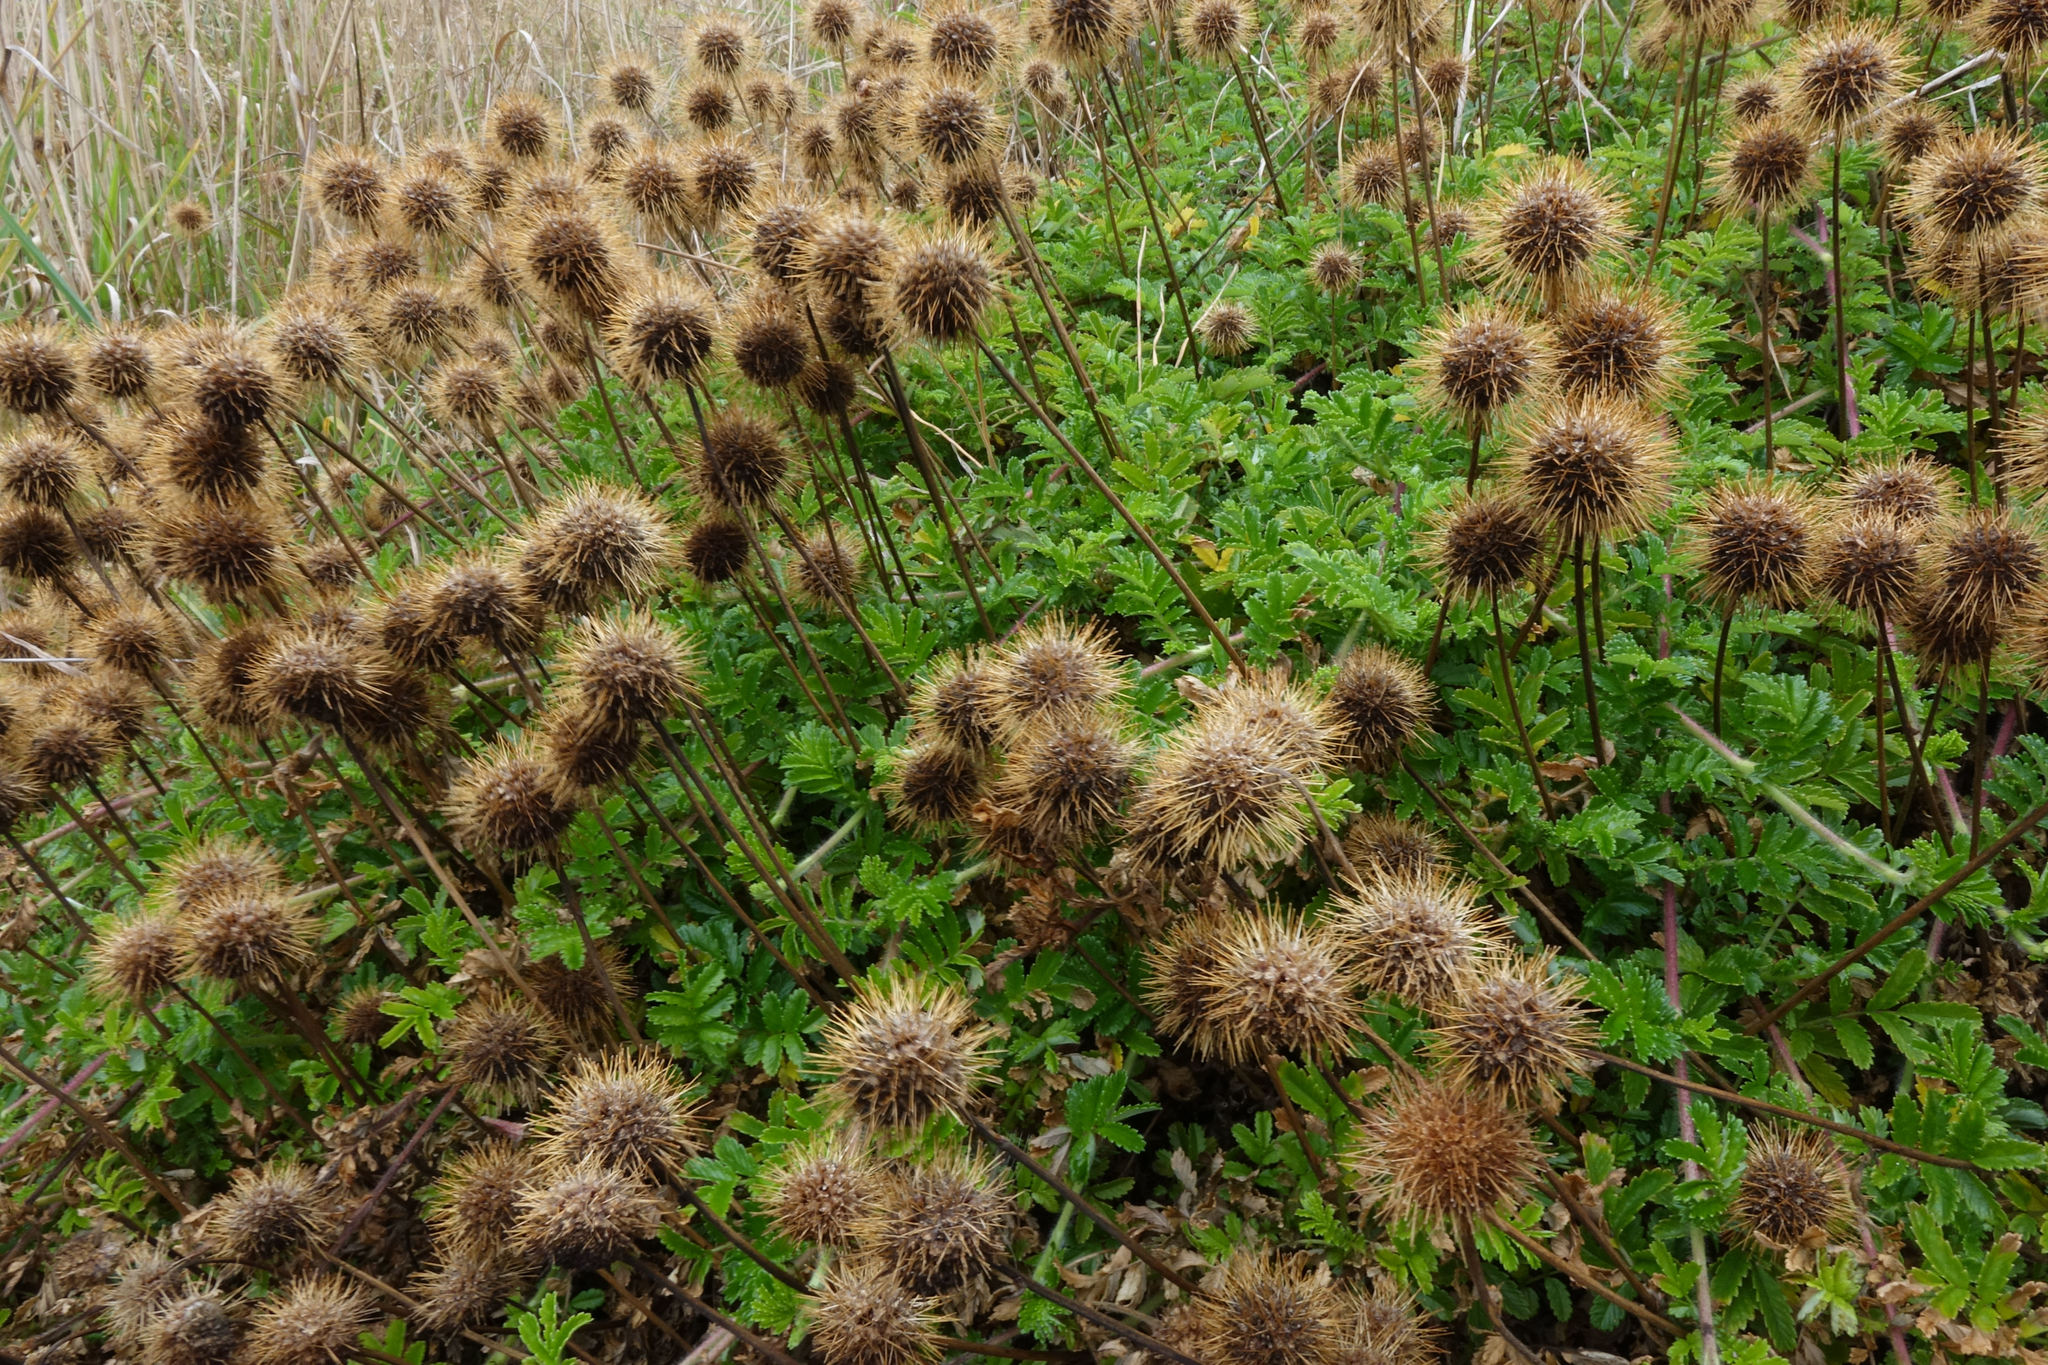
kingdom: Plantae
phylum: Tracheophyta
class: Magnoliopsida
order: Rosales
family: Rosaceae
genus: Acaena
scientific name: Acaena novae-zelandiae
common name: Pirri-pirri-bur
